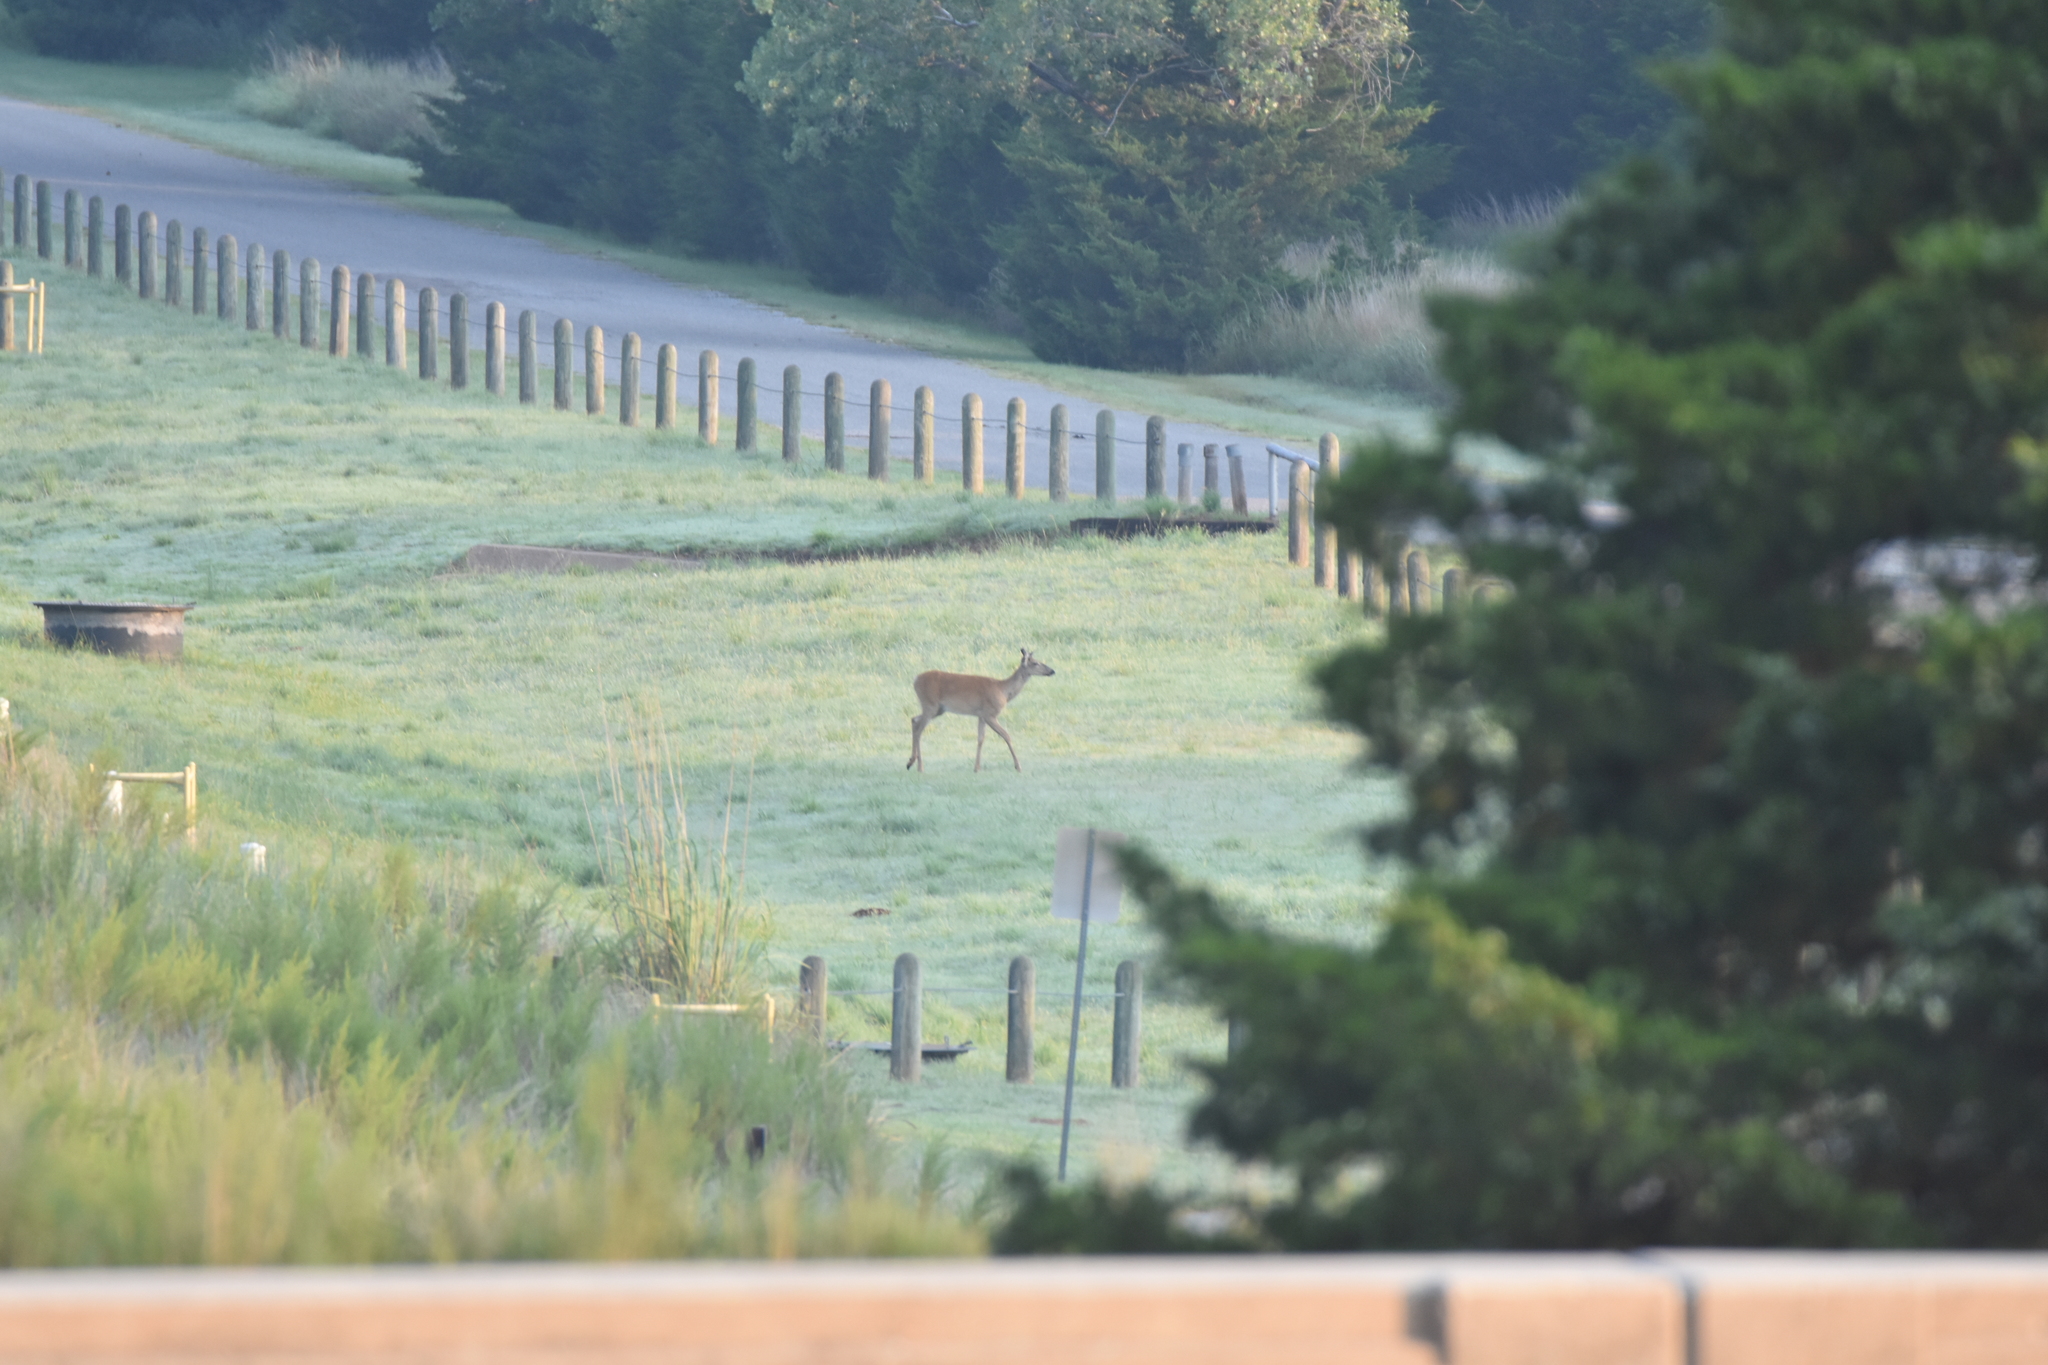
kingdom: Animalia
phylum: Chordata
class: Mammalia
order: Artiodactyla
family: Cervidae
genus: Odocoileus
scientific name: Odocoileus virginianus
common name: White-tailed deer
